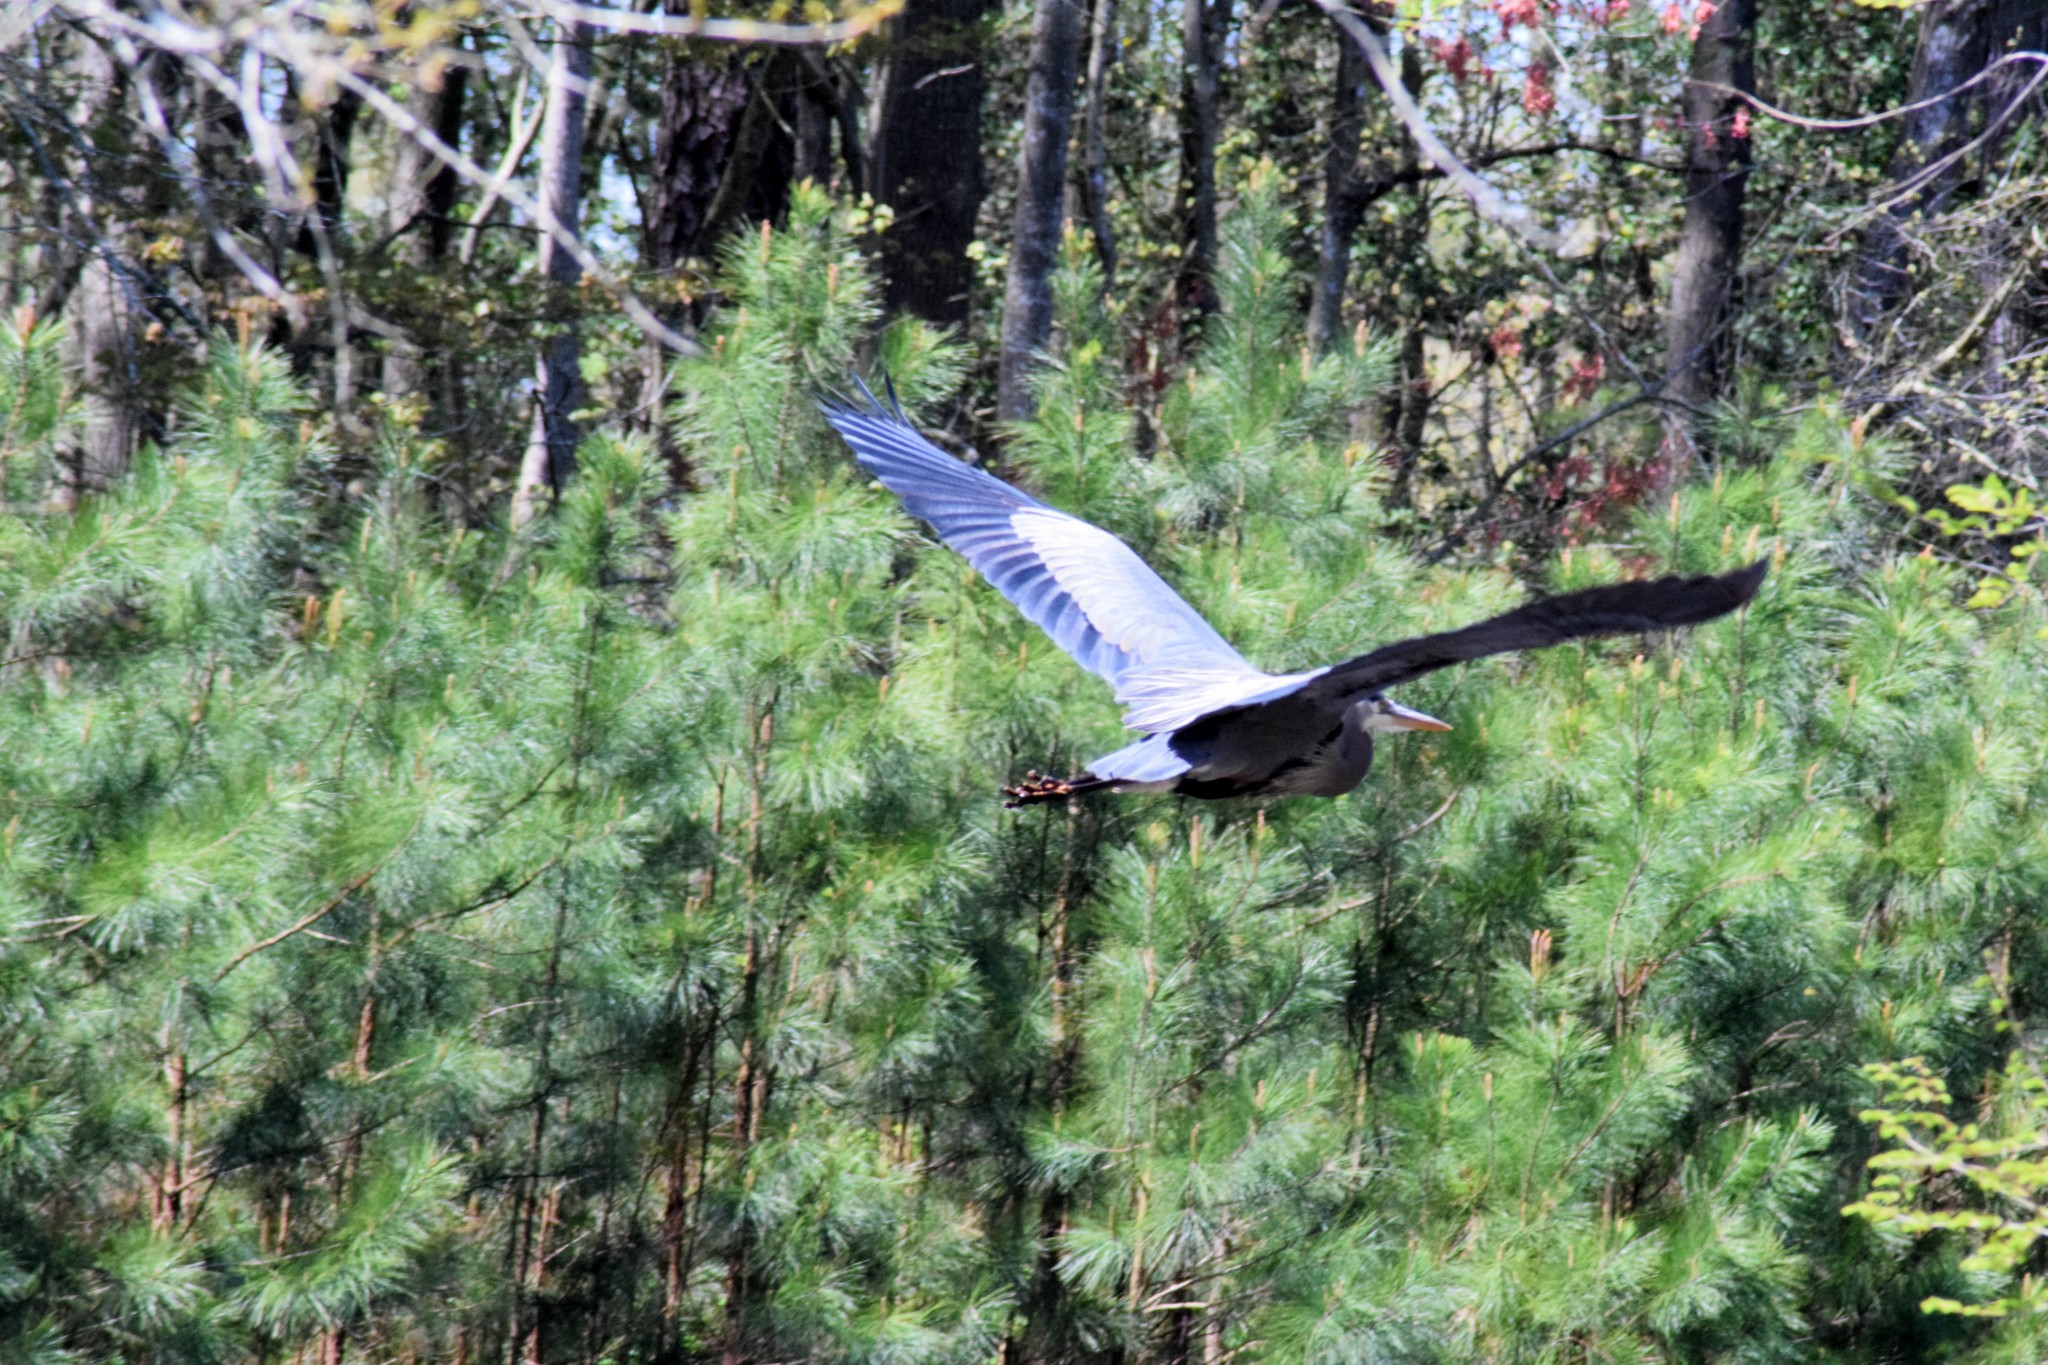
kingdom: Animalia
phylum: Chordata
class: Aves
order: Pelecaniformes
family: Ardeidae
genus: Ardea
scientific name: Ardea herodias
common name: Great blue heron
